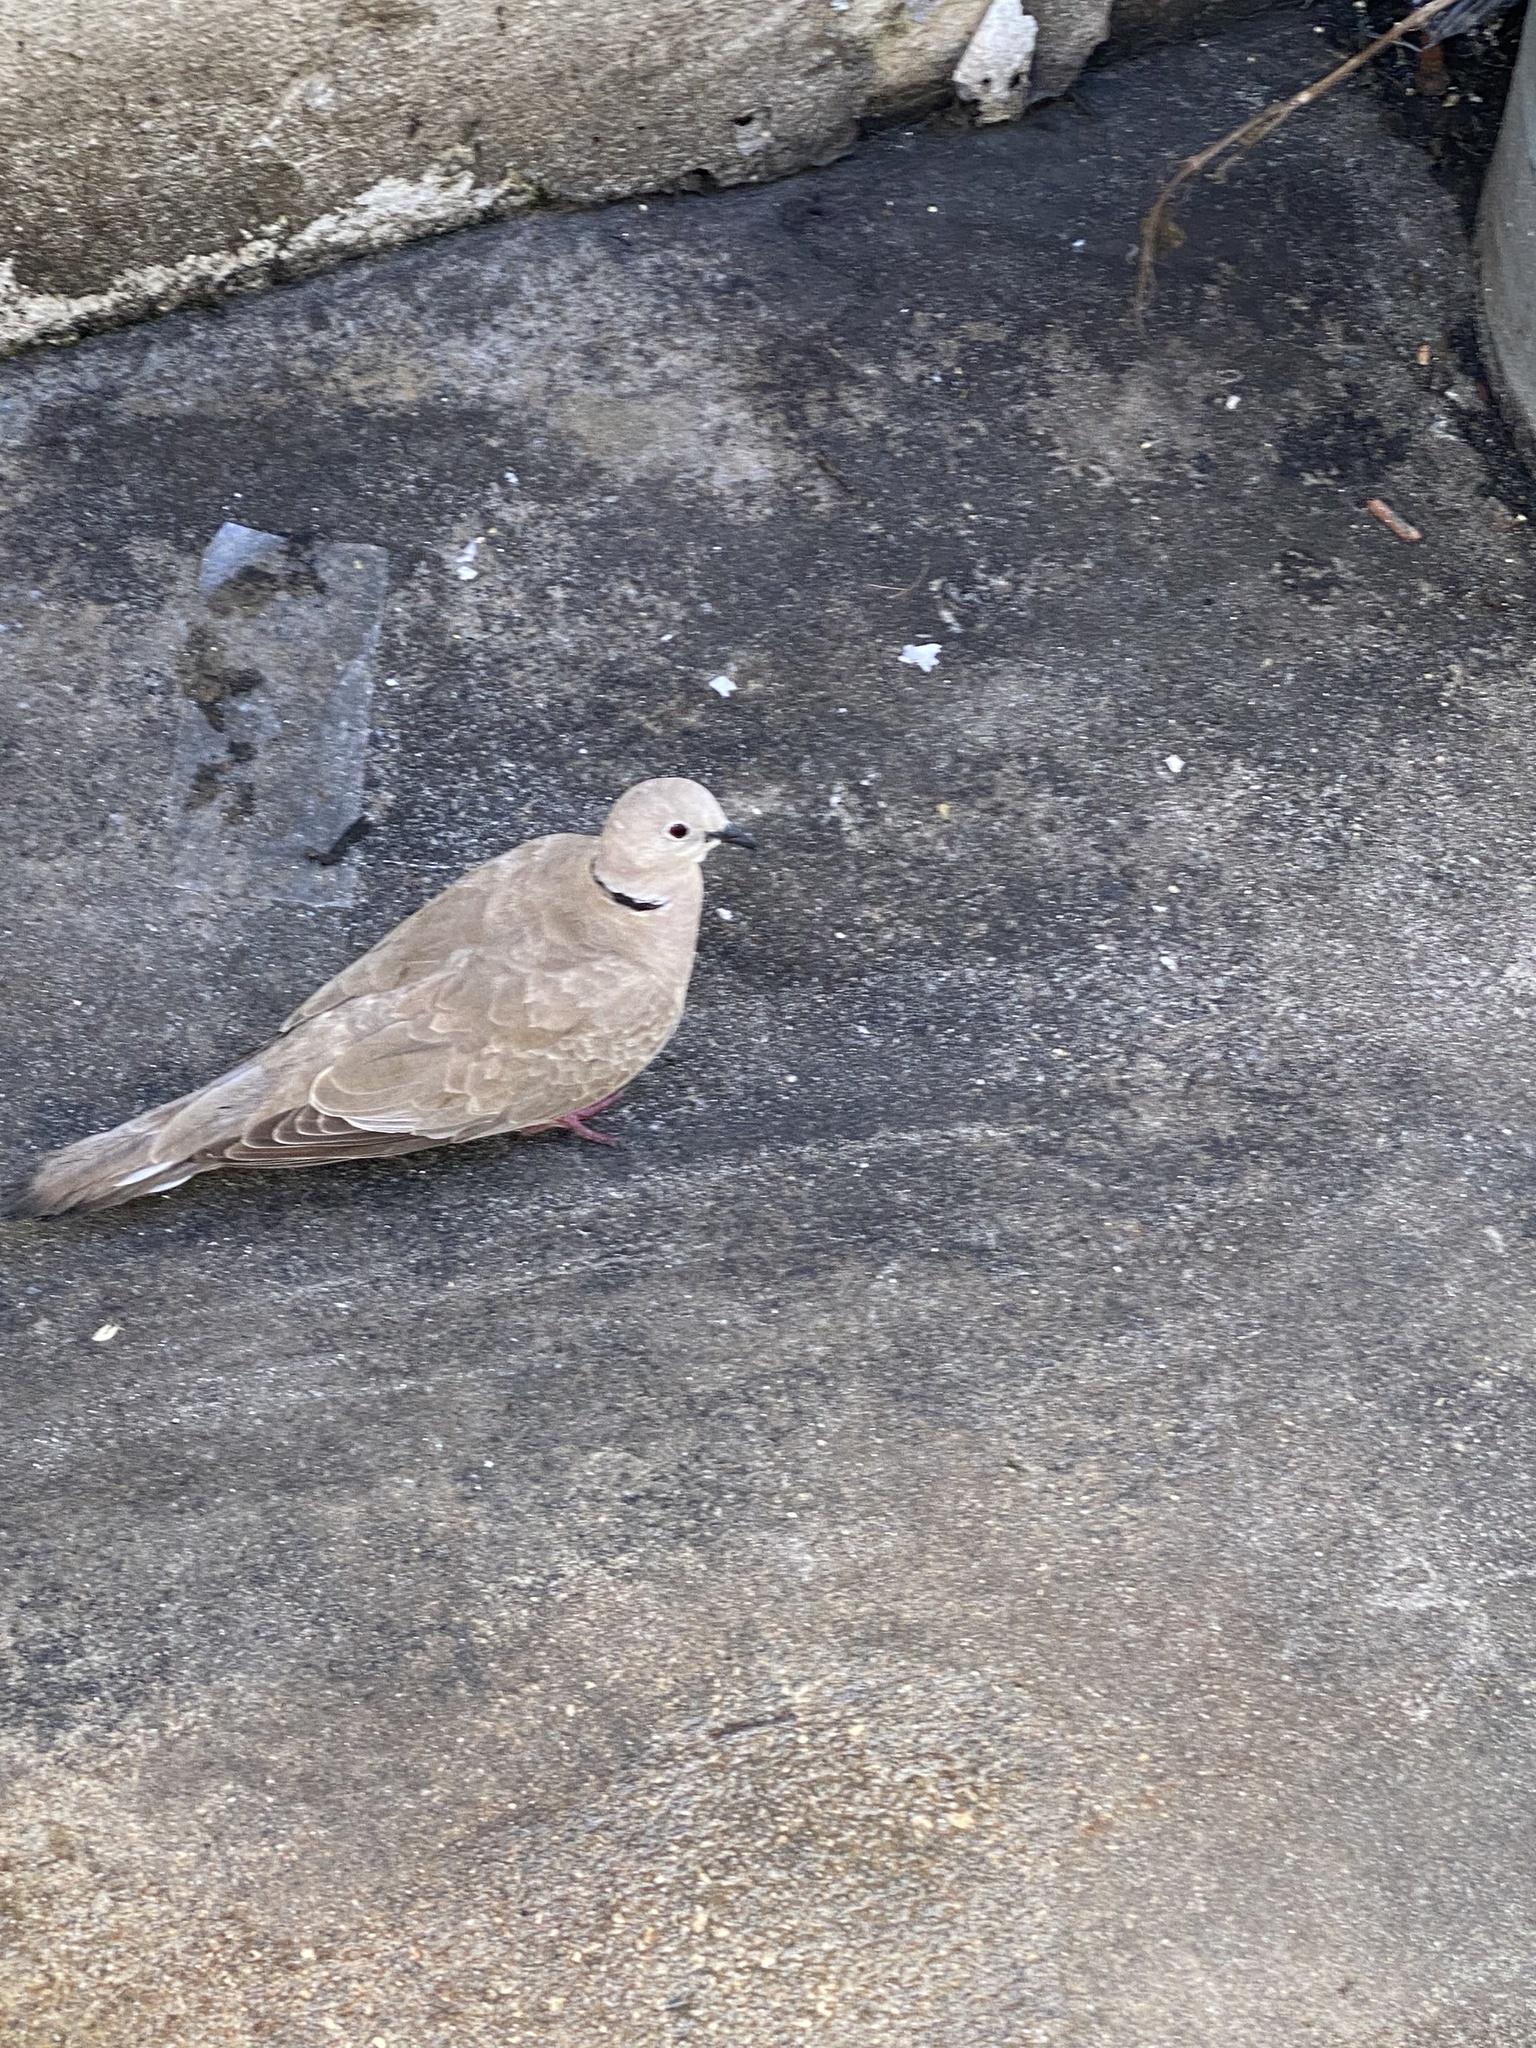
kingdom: Animalia
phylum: Chordata
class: Aves
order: Columbiformes
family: Columbidae
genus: Streptopelia
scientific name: Streptopelia decaocto
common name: Eurasian collared dove
